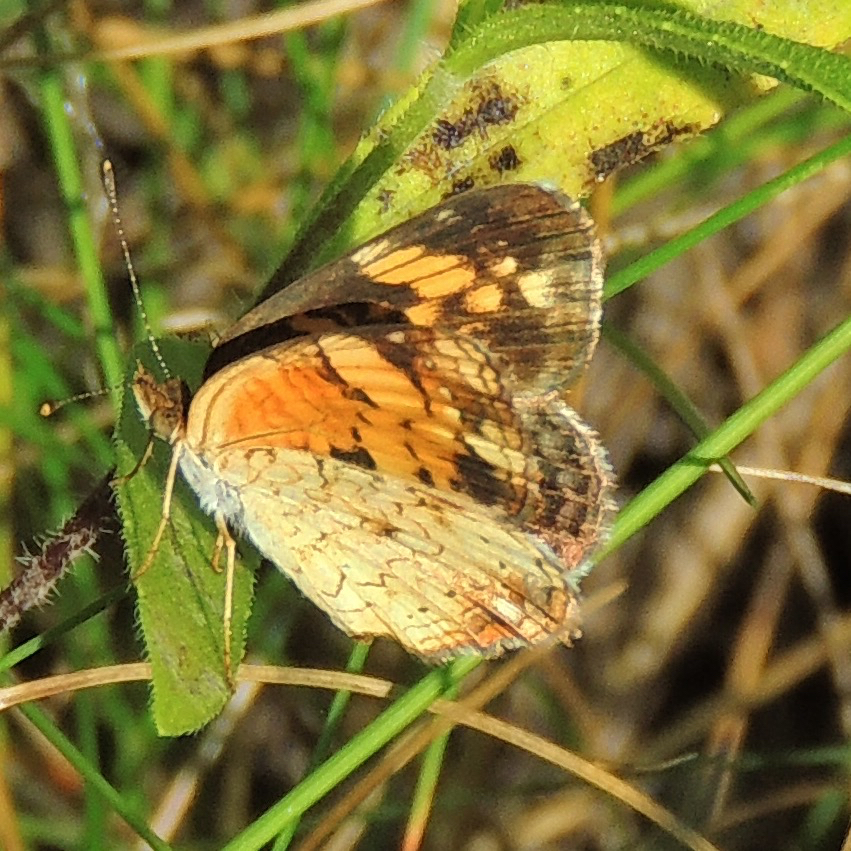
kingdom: Animalia
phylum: Arthropoda
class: Insecta
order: Lepidoptera
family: Nymphalidae
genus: Phyciodes
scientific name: Phyciodes tharos
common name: Pearl crescent
